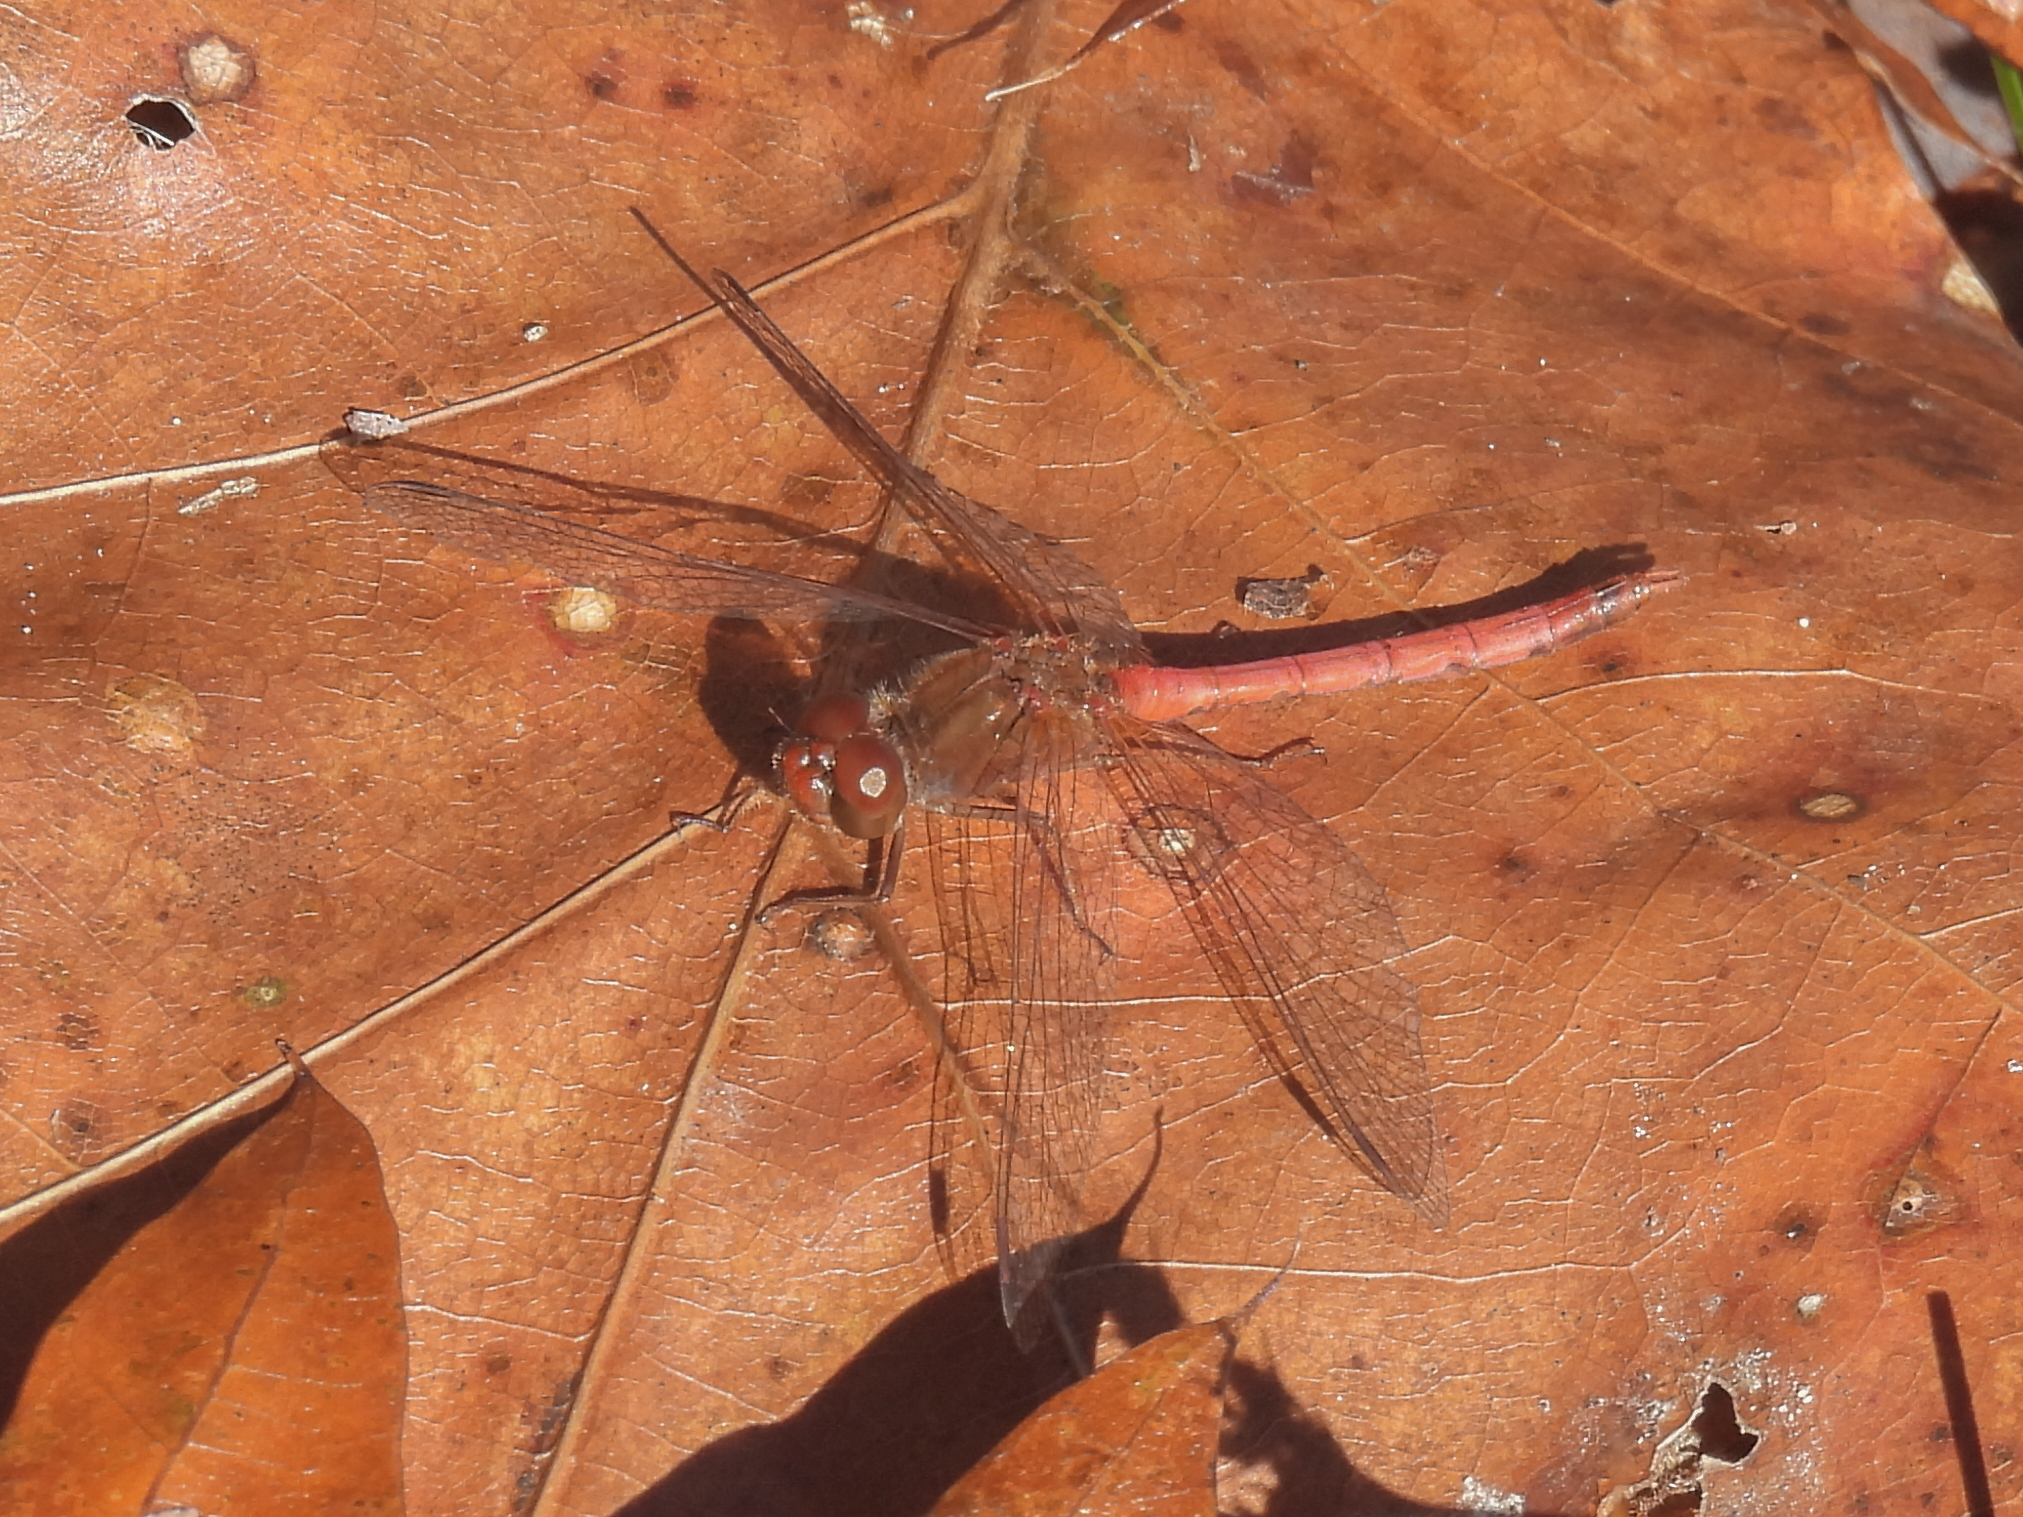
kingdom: Animalia
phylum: Arthropoda
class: Insecta
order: Odonata
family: Libellulidae
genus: Sympetrum
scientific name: Sympetrum vicinum
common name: Autumn meadowhawk
